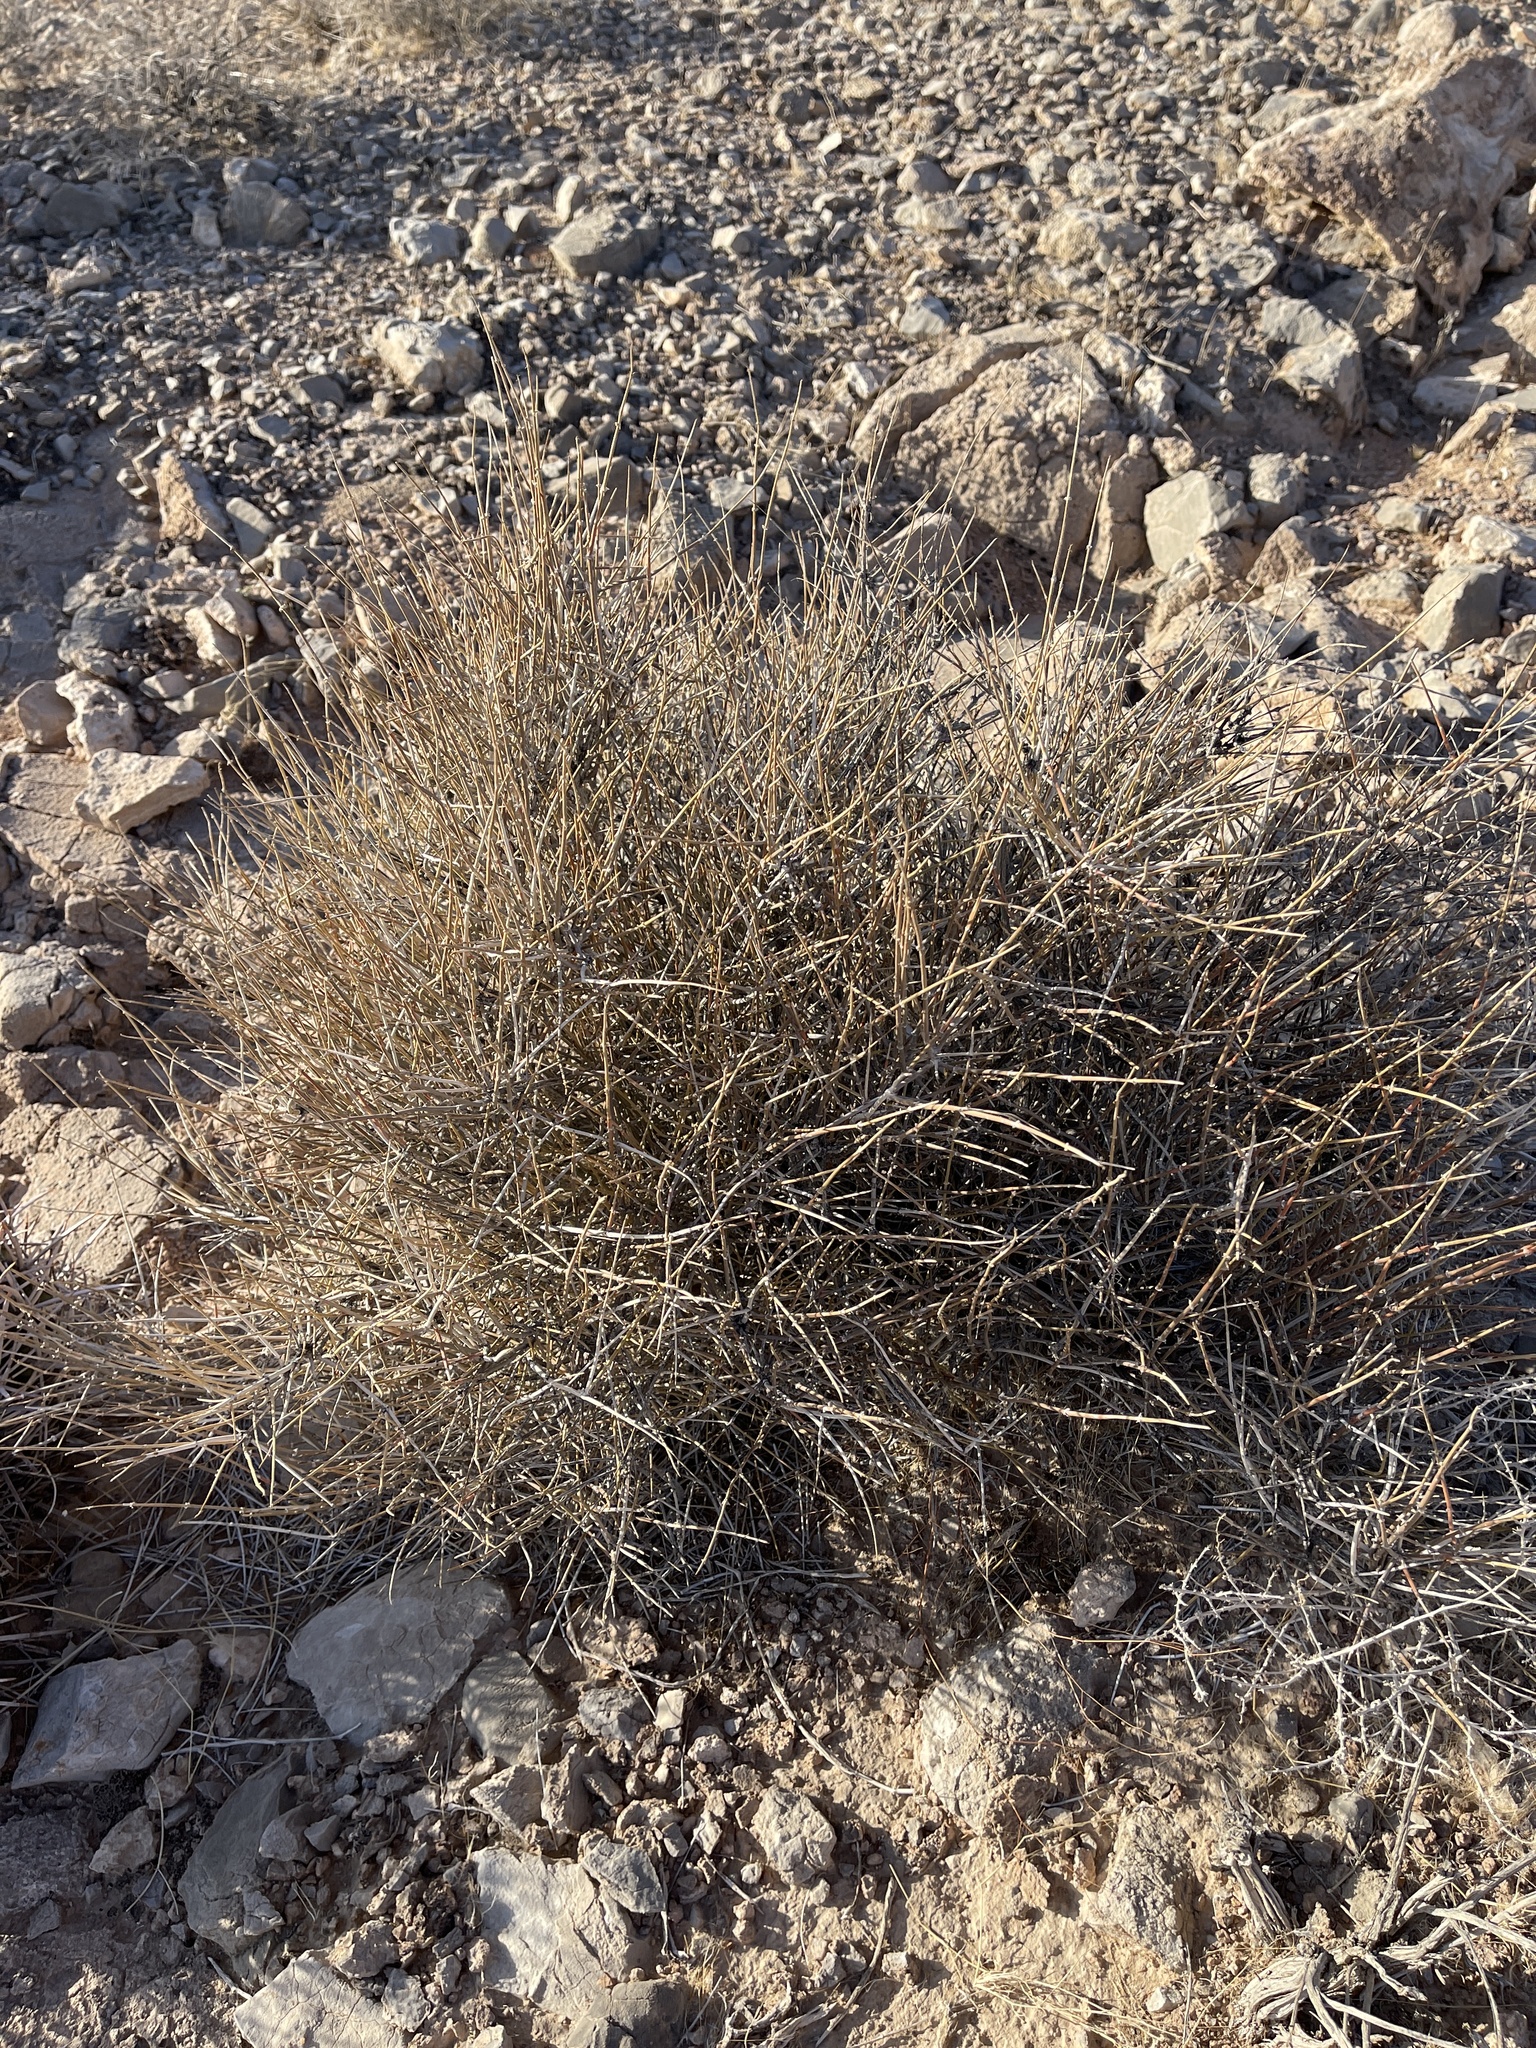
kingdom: Plantae
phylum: Tracheophyta
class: Gnetopsida
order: Ephedrales
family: Ephedraceae
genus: Ephedra
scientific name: Ephedra nevadensis
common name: Gray ephedra
